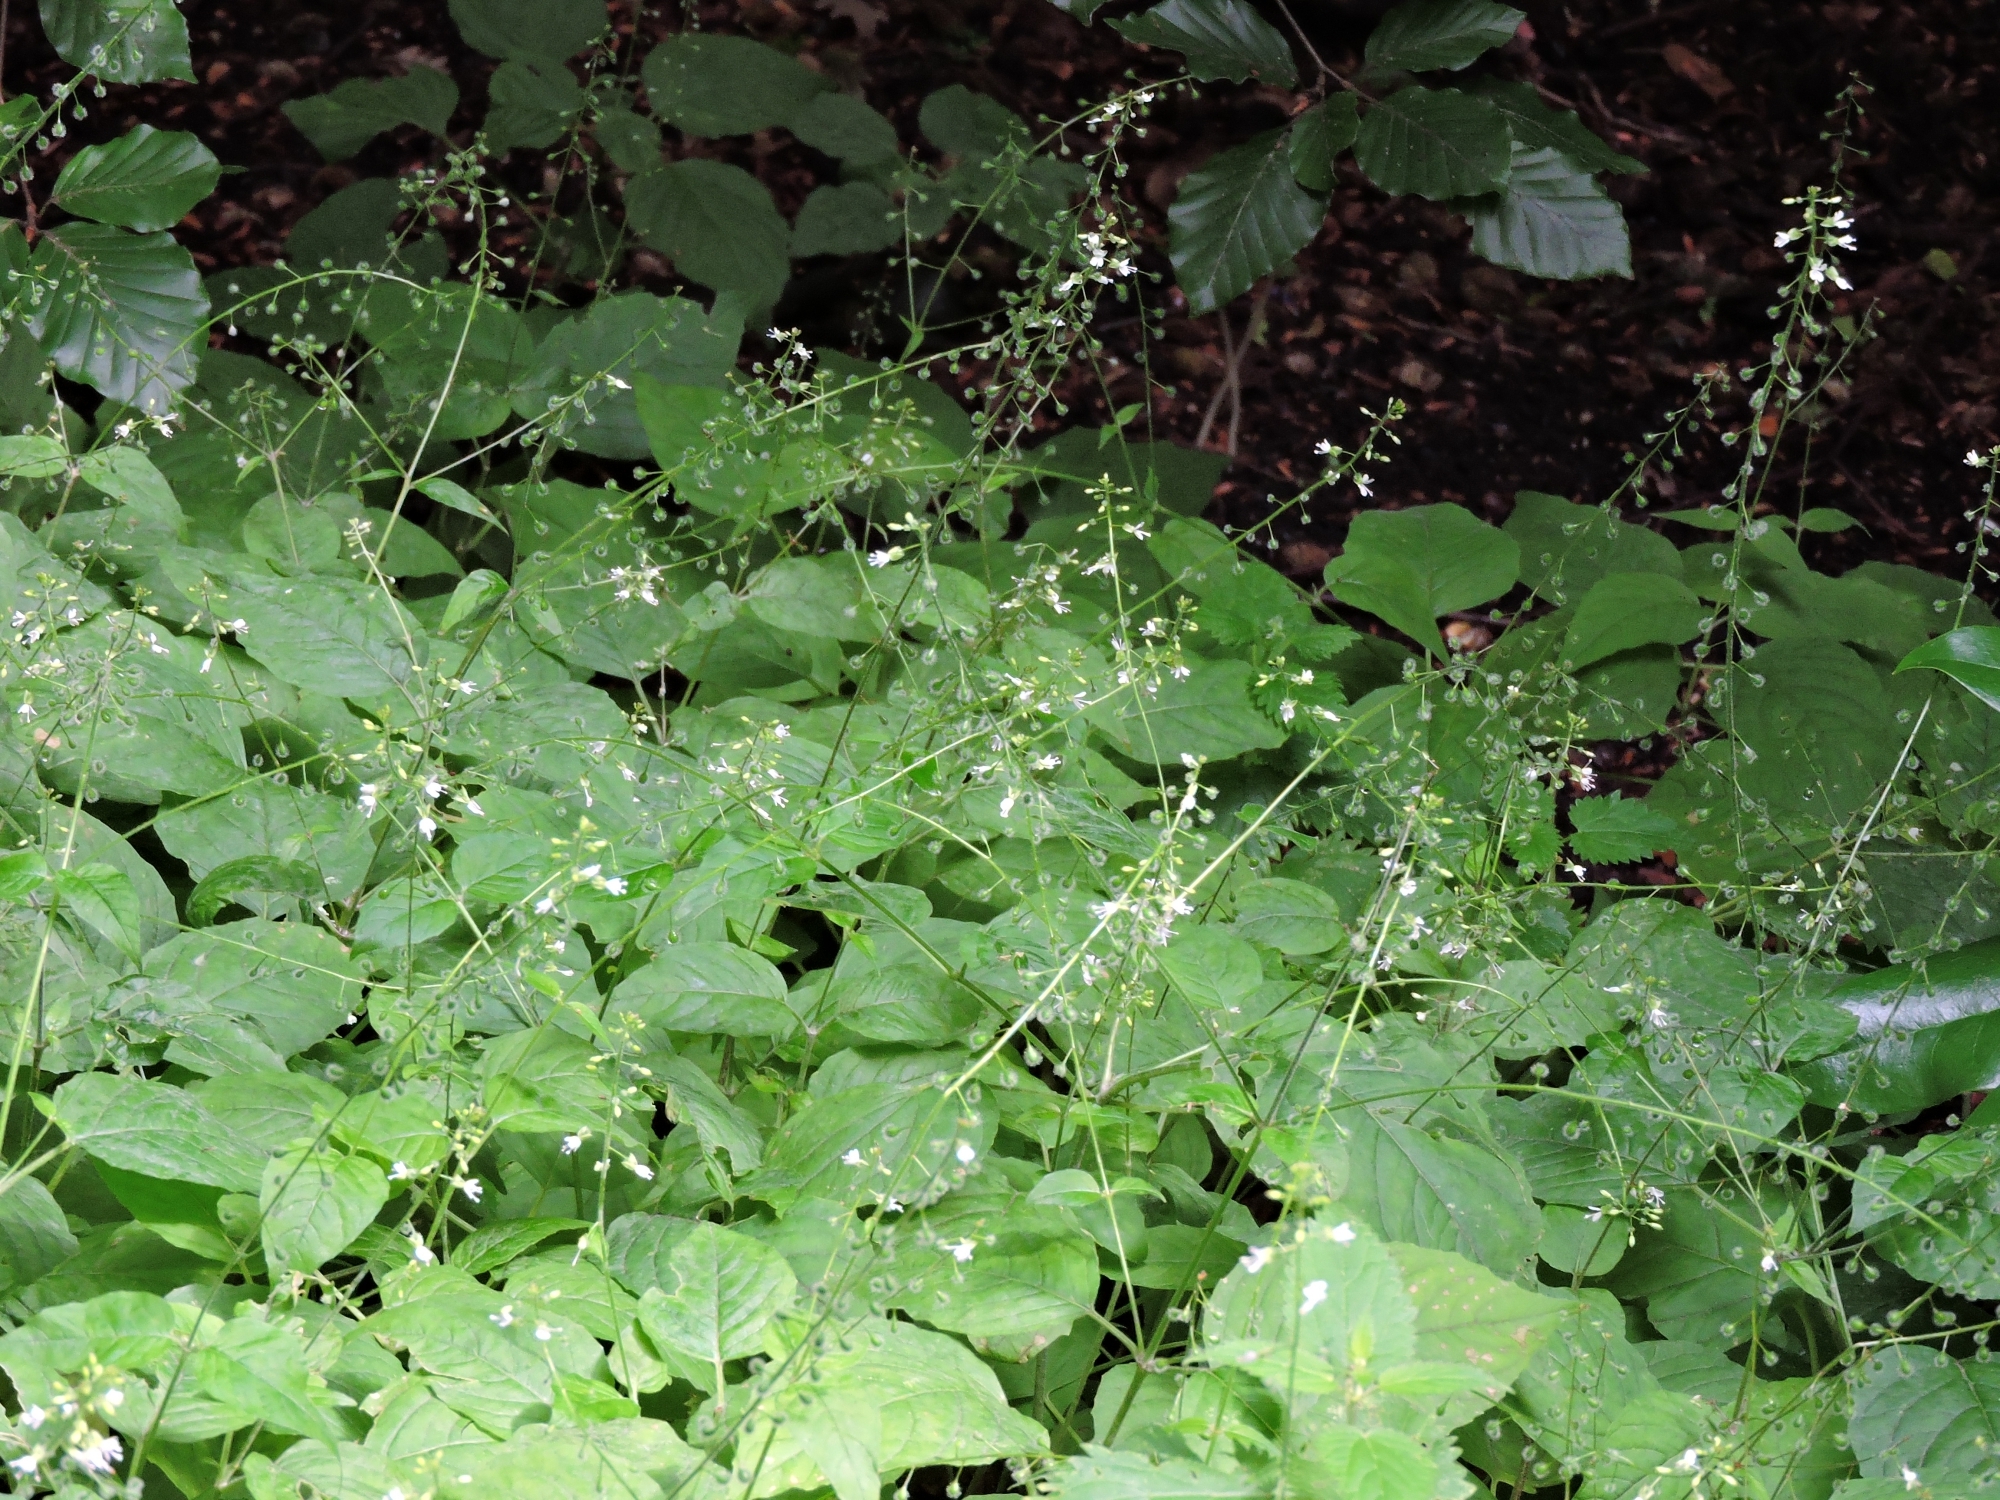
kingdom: Plantae
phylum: Tracheophyta
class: Magnoliopsida
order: Myrtales
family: Onagraceae
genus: Circaea
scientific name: Circaea lutetiana
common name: Enchanter's-nightshade
